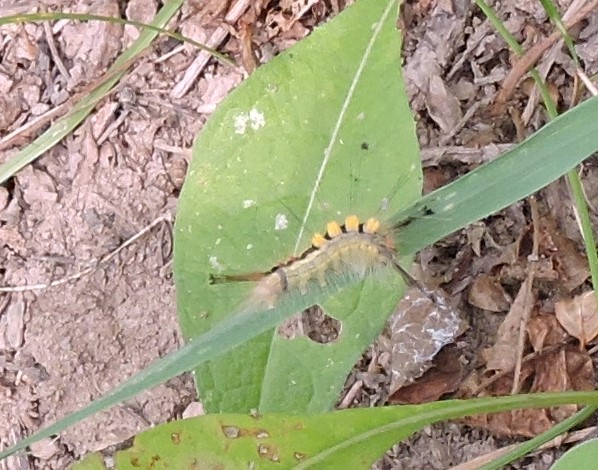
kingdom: Animalia
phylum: Arthropoda
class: Insecta
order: Lepidoptera
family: Erebidae
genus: Orgyia
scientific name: Orgyia leucostigma
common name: White-marked tussock moth
